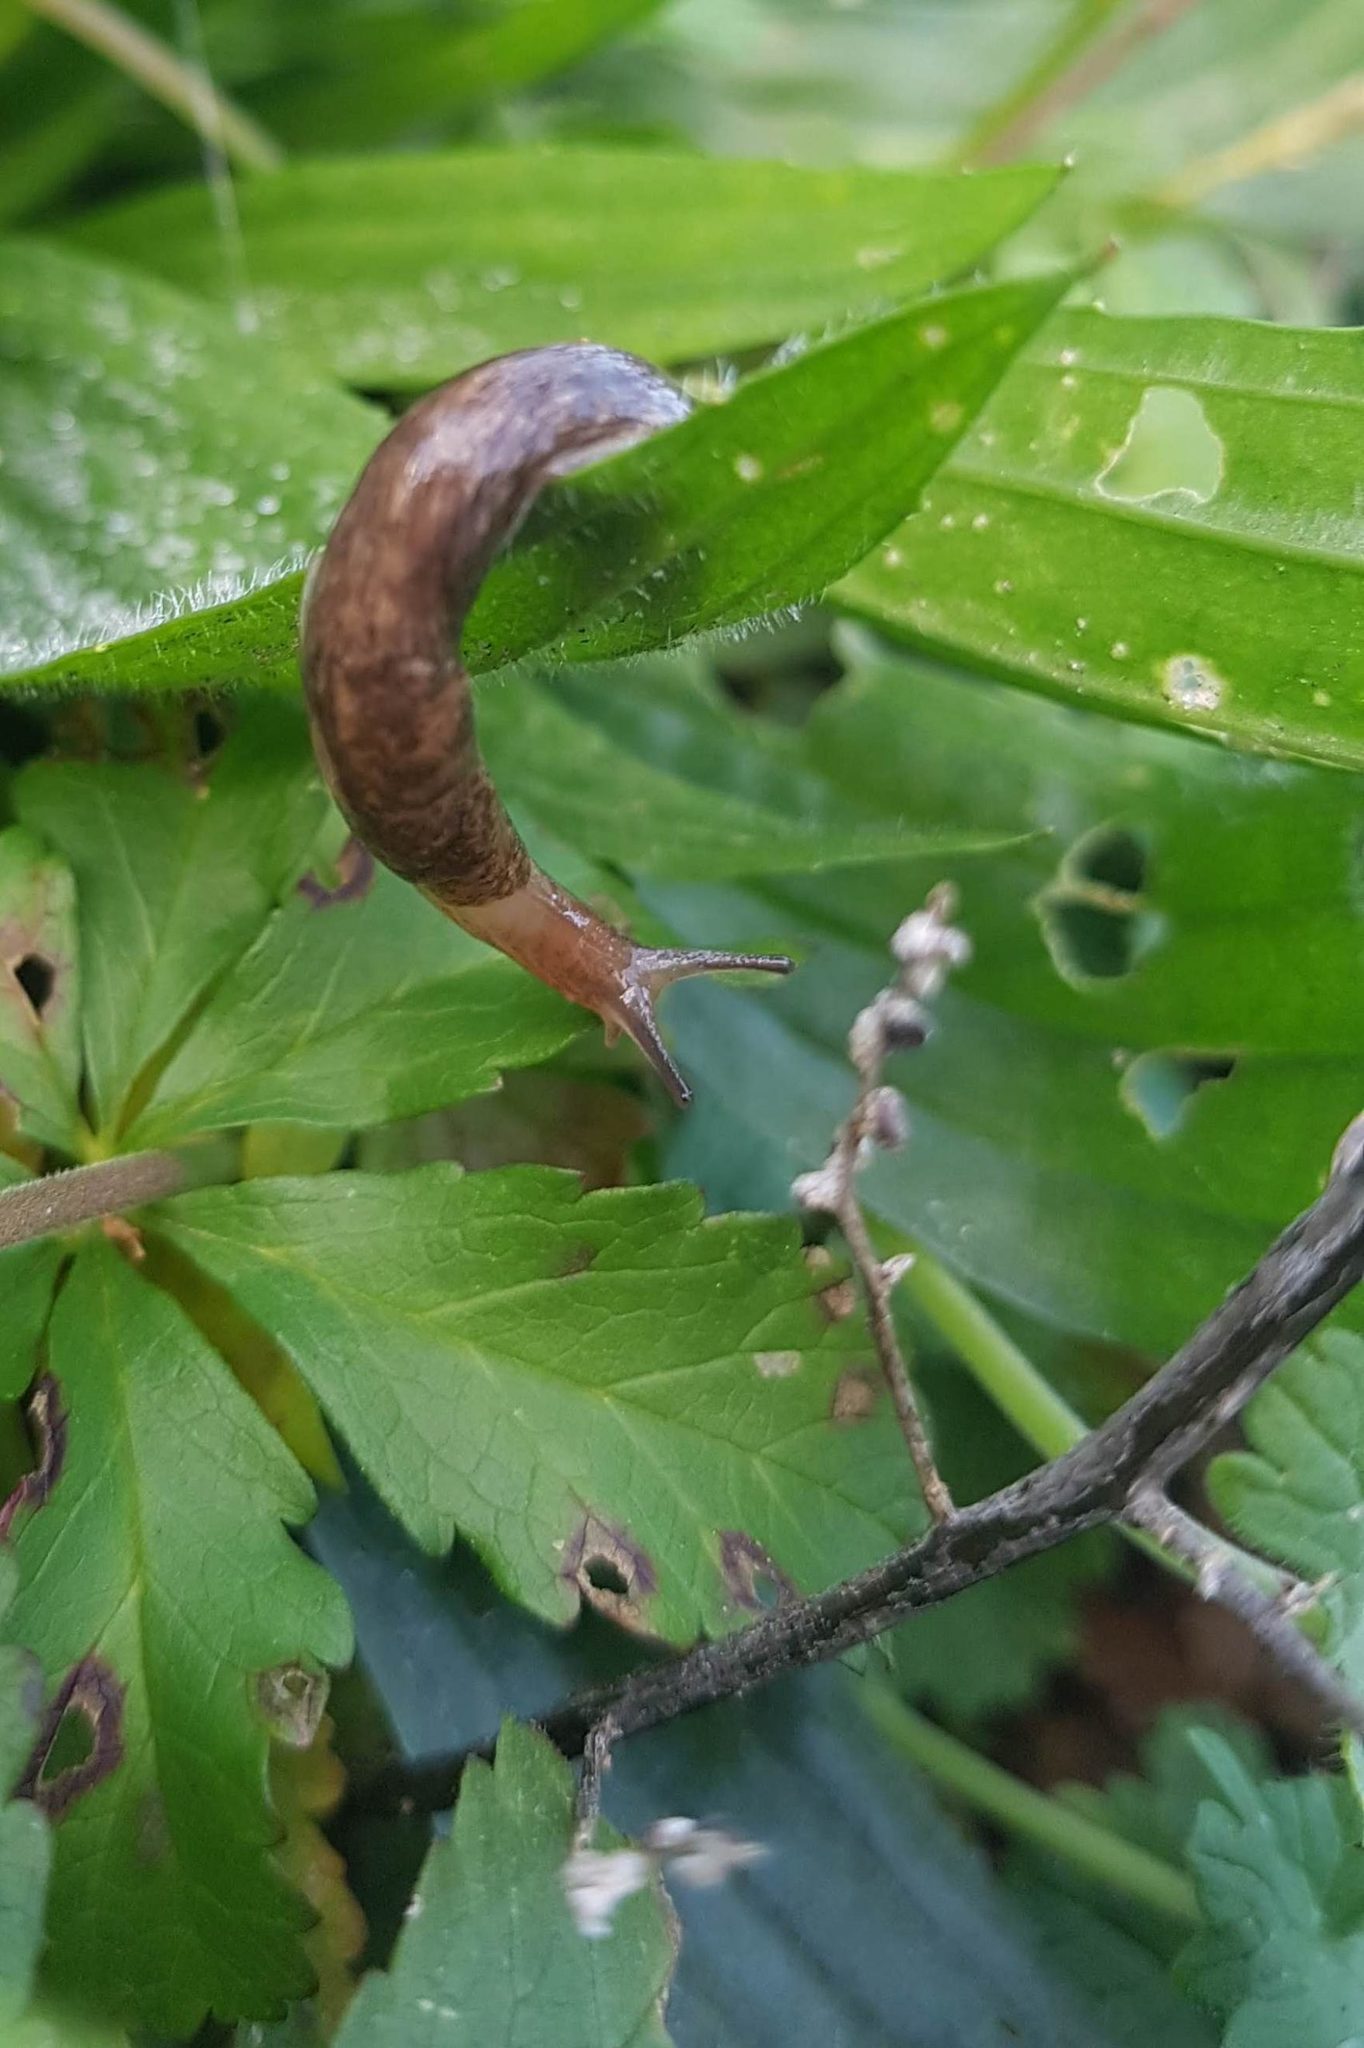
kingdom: Animalia
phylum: Mollusca
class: Gastropoda
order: Stylommatophora
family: Agriolimacidae
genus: Deroceras
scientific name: Deroceras reticulatum
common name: Gray field slug
